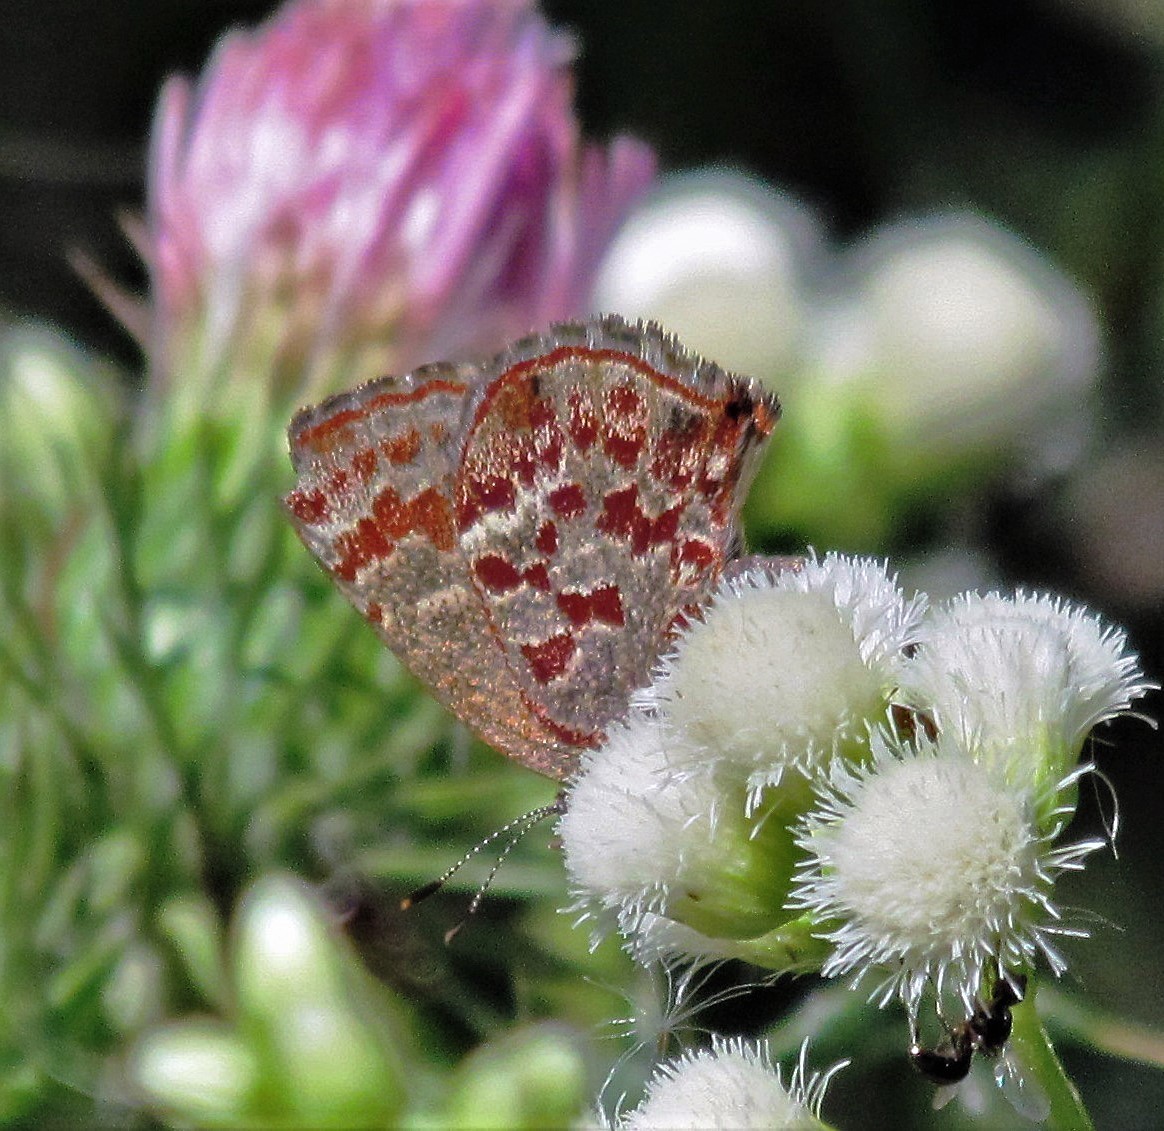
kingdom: Animalia
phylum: Arthropoda
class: Insecta
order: Lepidoptera
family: Lycaenidae
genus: Ministrymon
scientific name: Ministrymon
